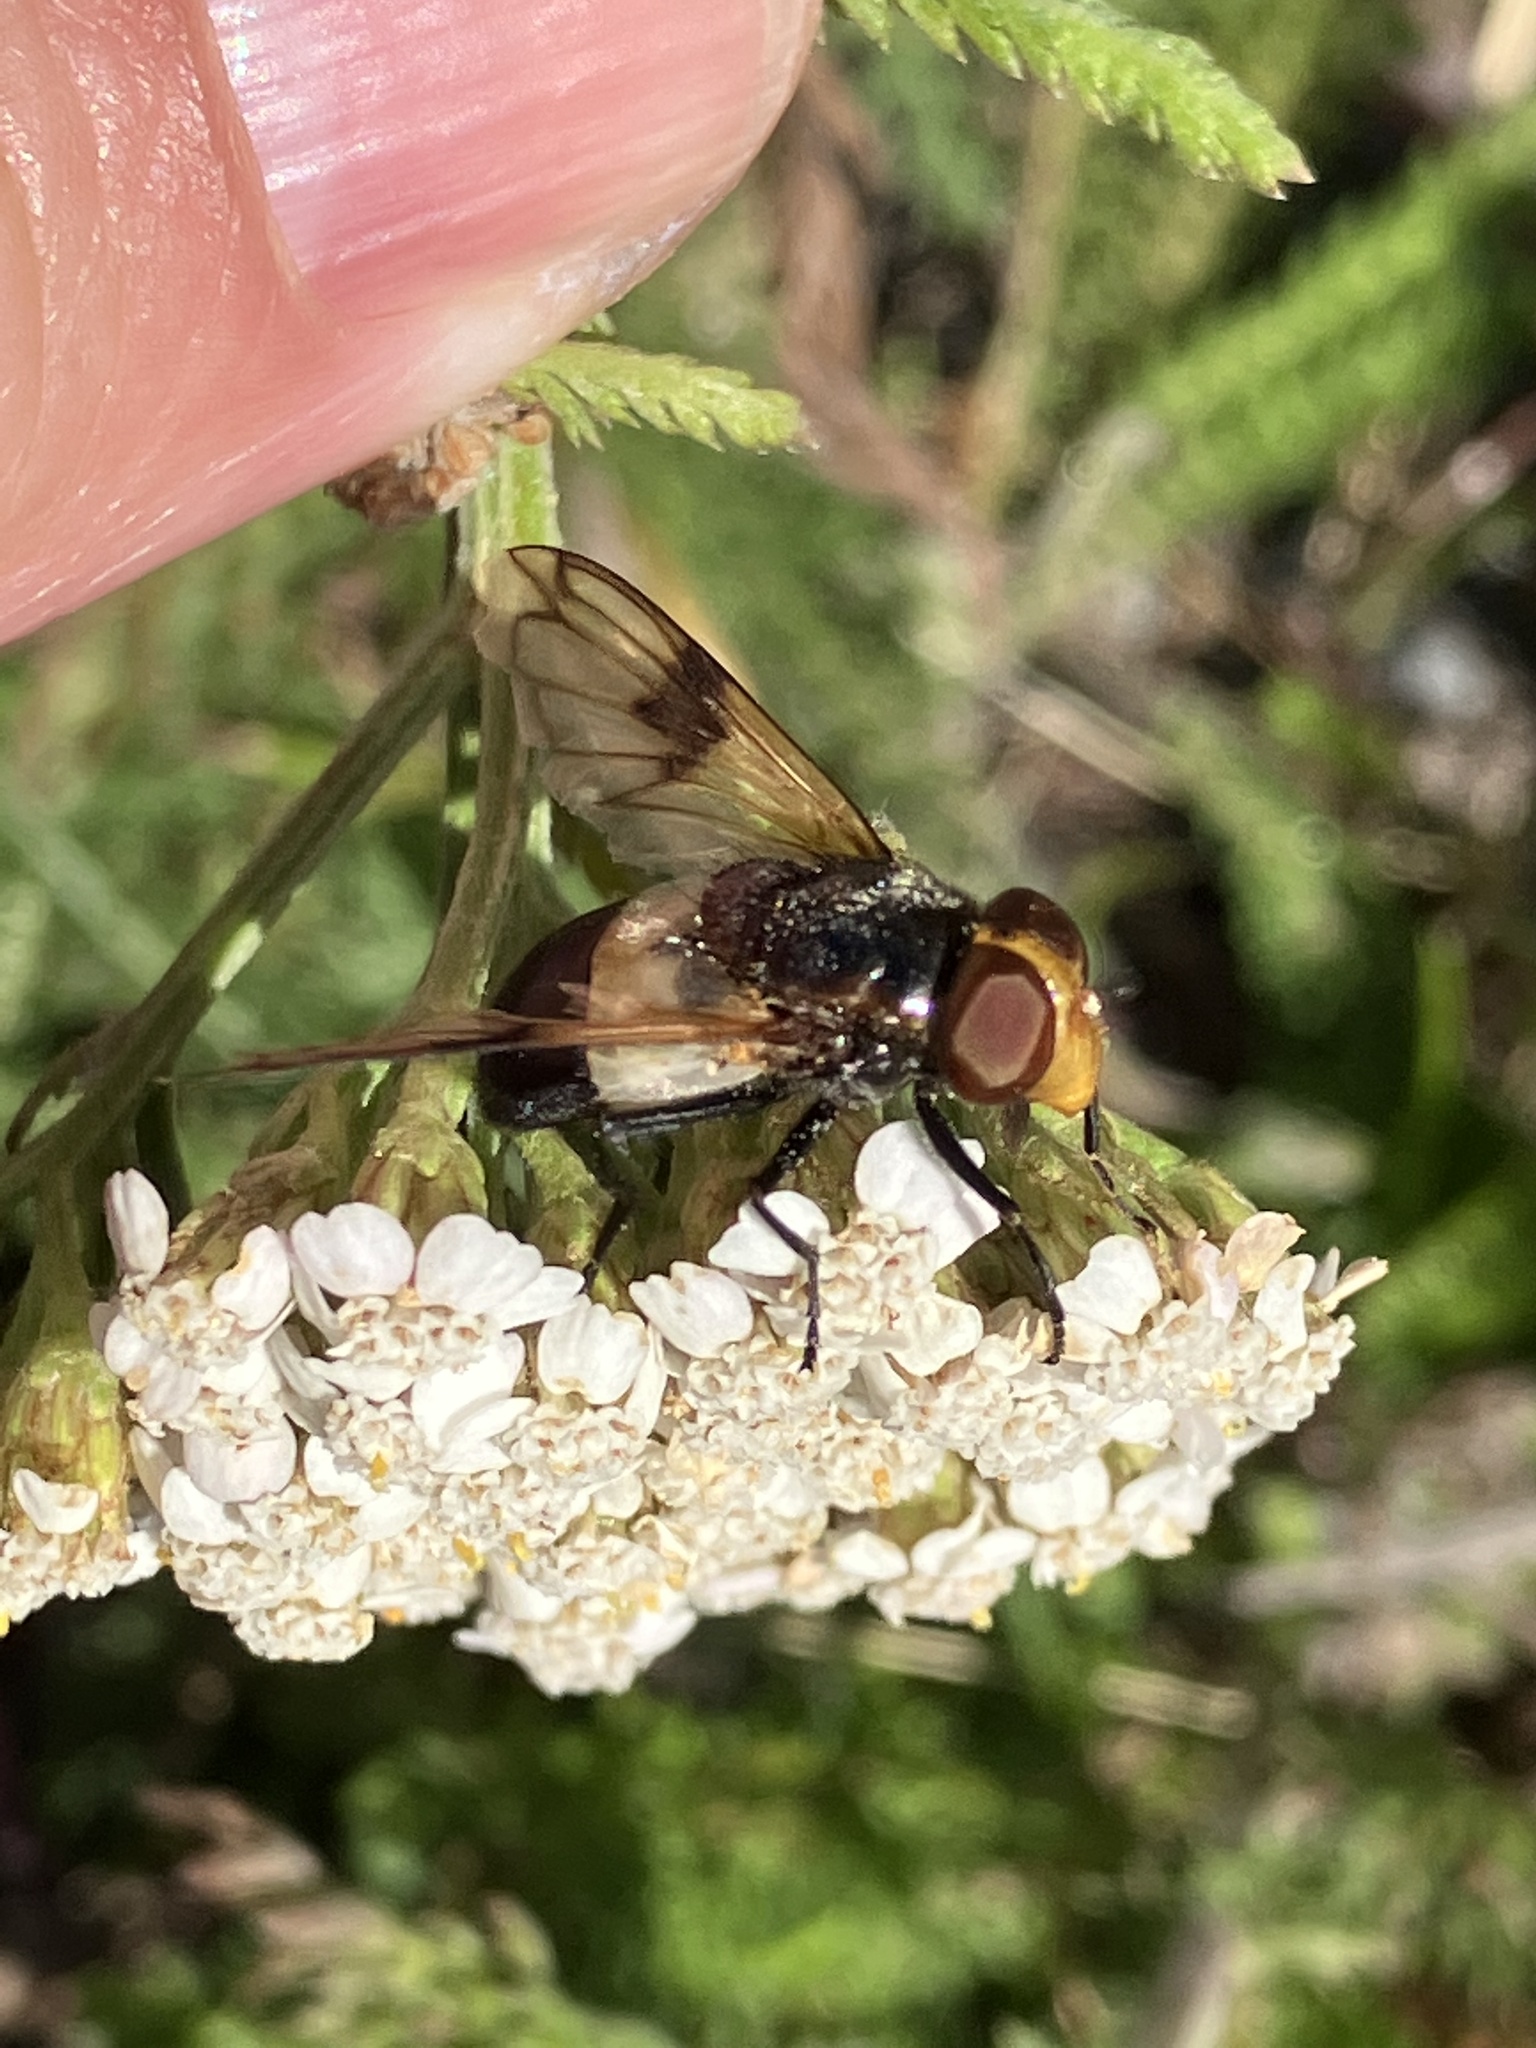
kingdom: Animalia
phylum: Arthropoda
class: Insecta
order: Diptera
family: Syrphidae
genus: Volucella
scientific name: Volucella pellucens
